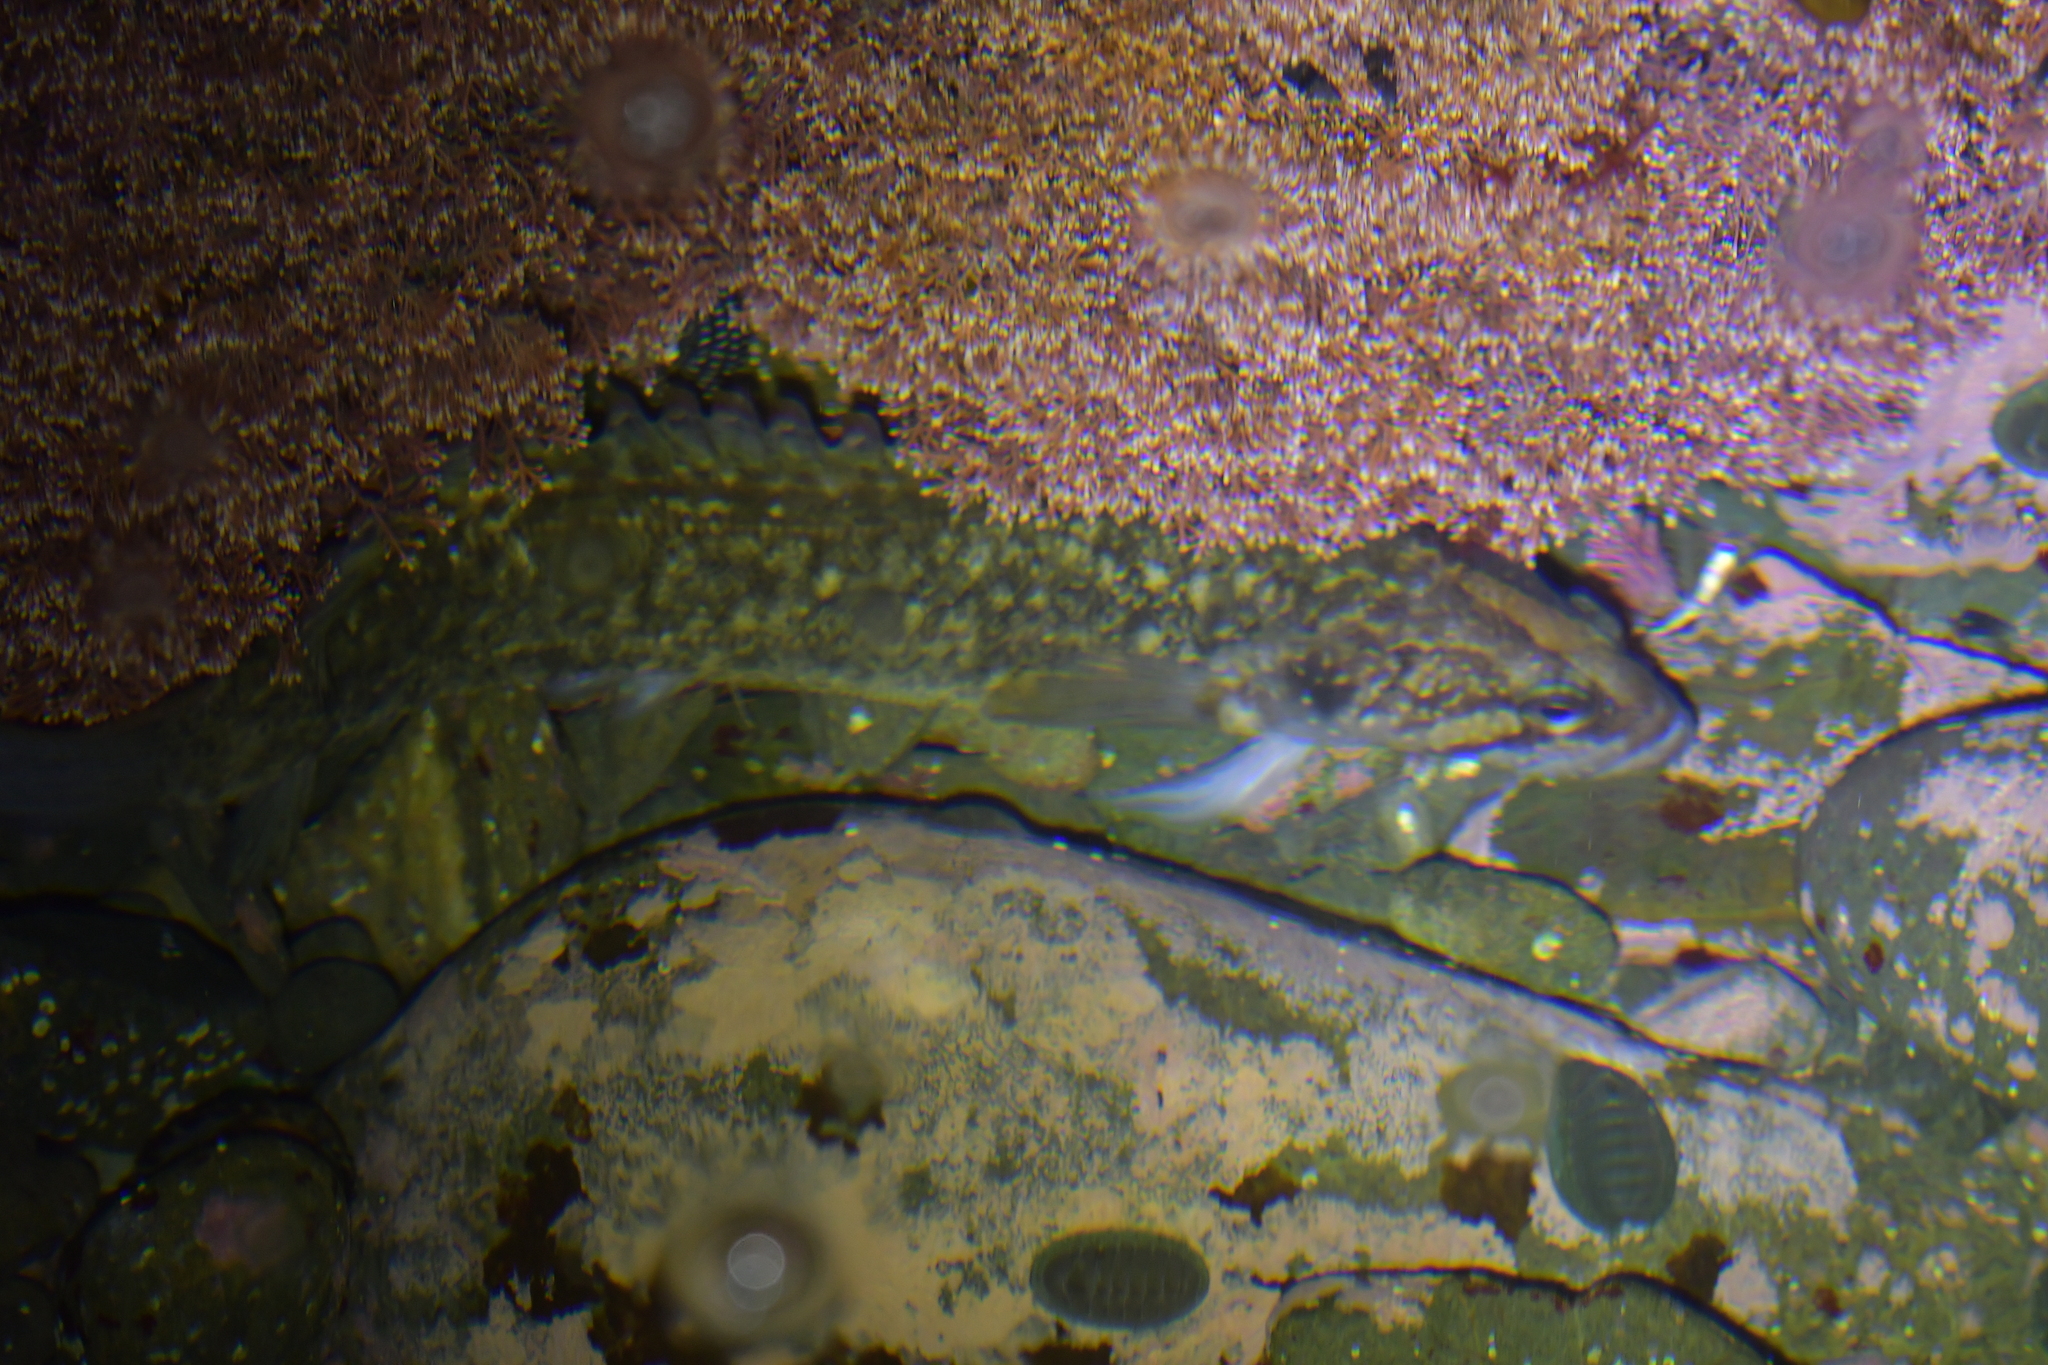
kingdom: Animalia
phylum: Chordata
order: Perciformes
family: Plesiopidae
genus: Acanthoclinus
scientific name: Acanthoclinus fuscus
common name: Olive rockfish
